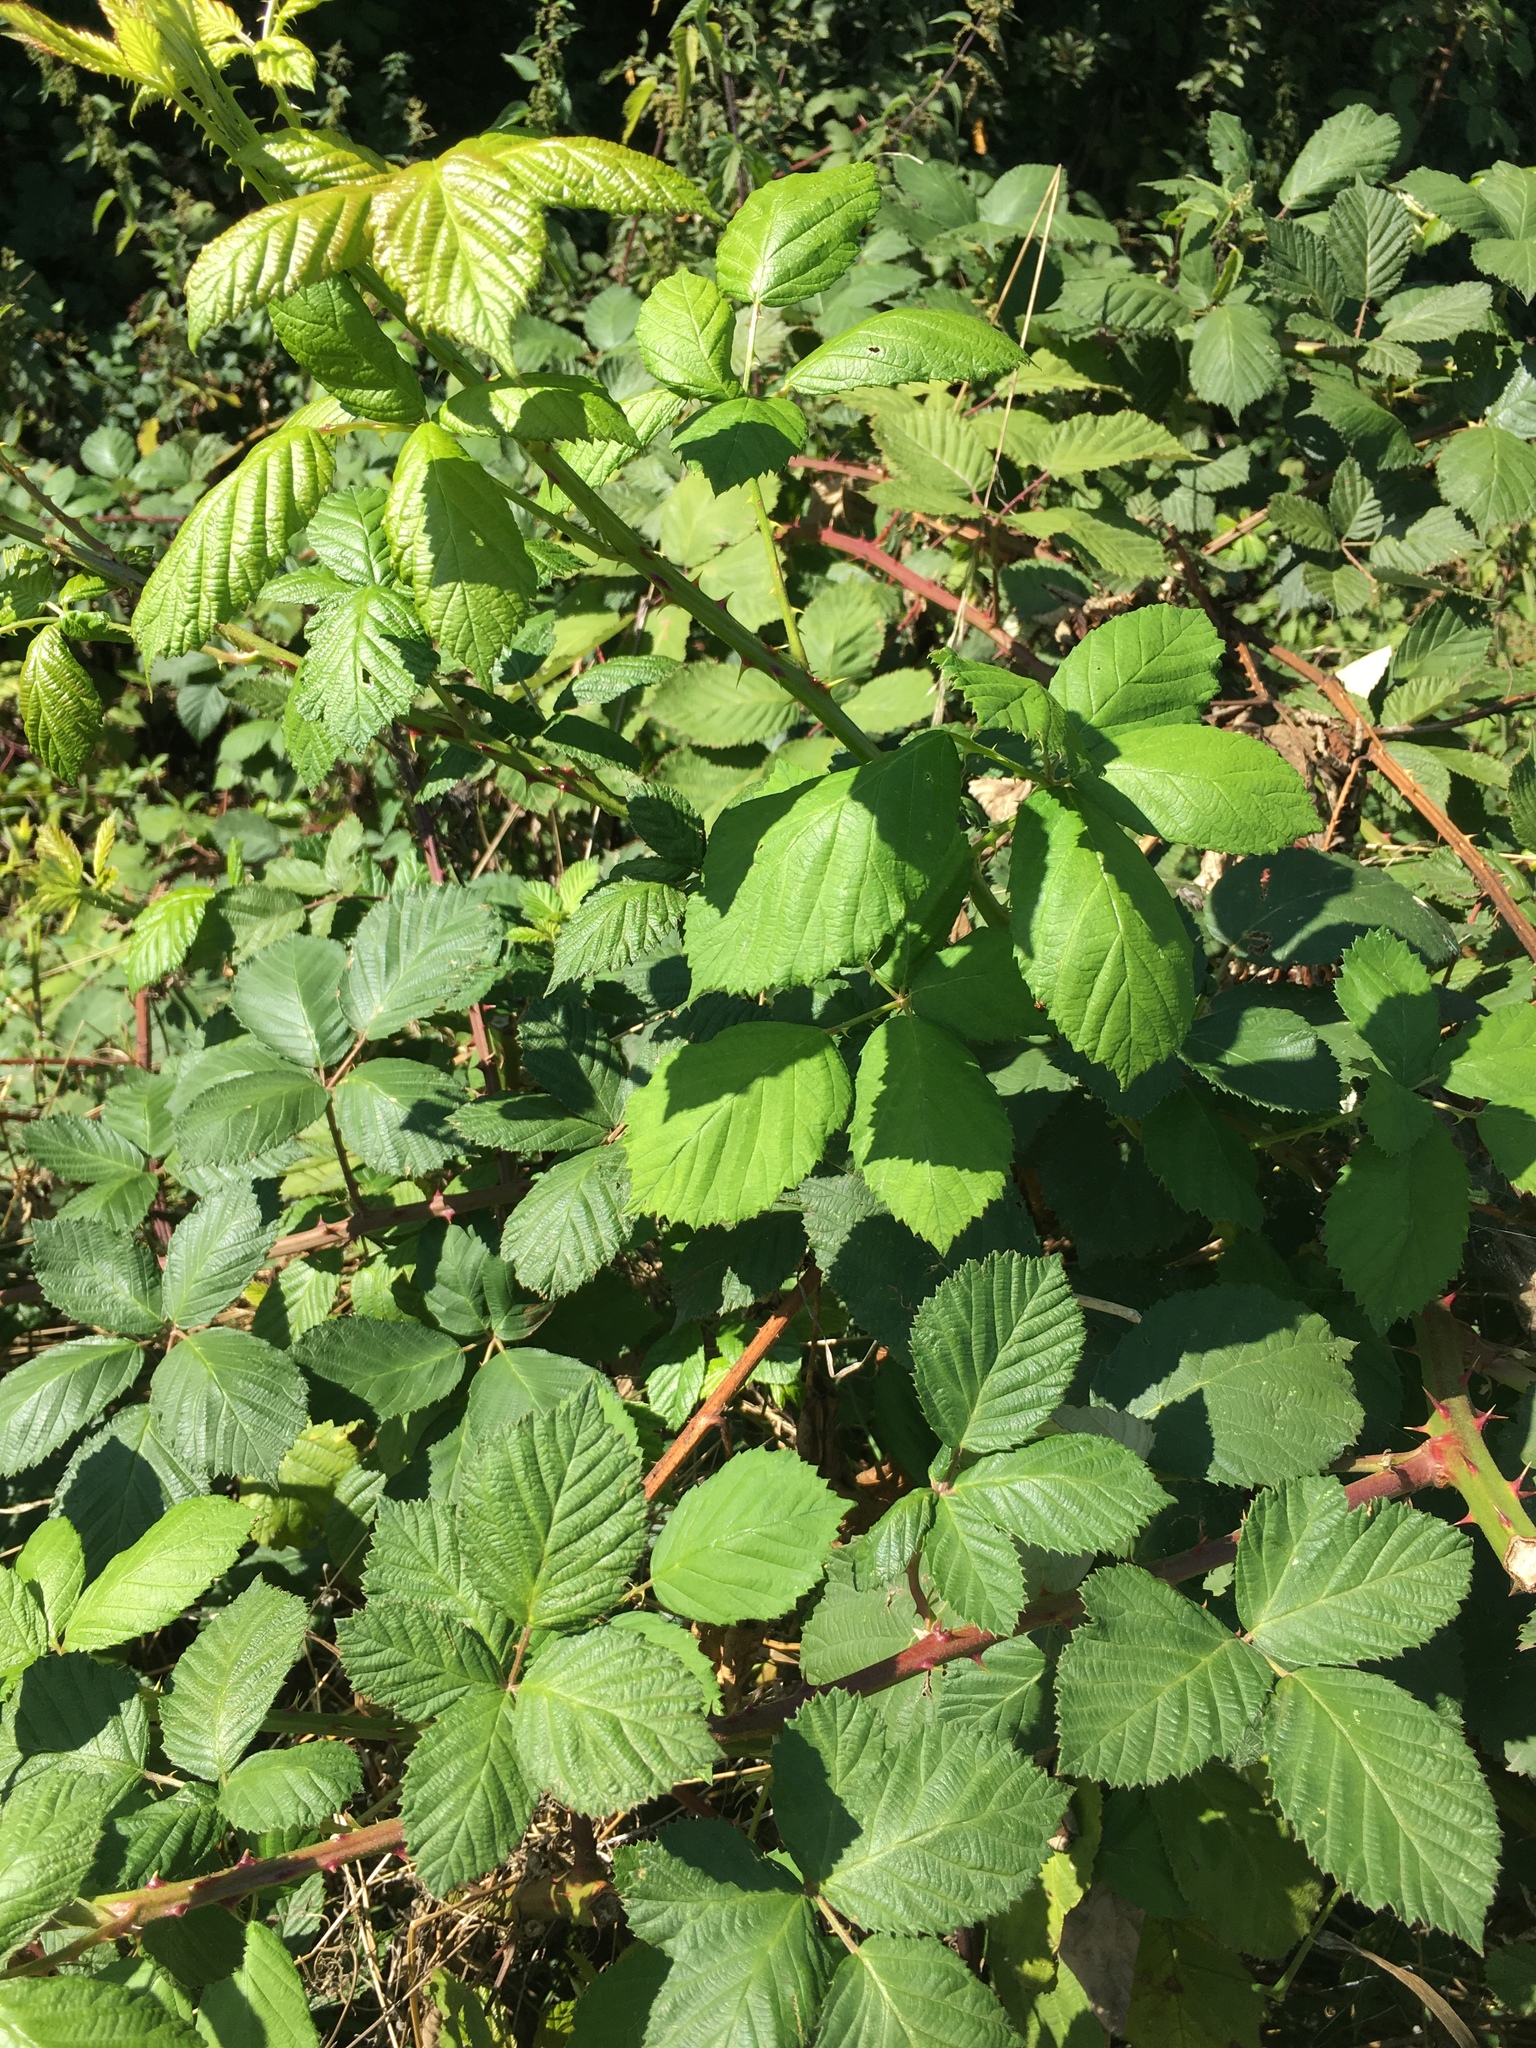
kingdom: Plantae
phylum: Tracheophyta
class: Magnoliopsida
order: Rosales
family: Rosaceae
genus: Rubus
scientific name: Rubus armeniacus
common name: Himalayan blackberry
